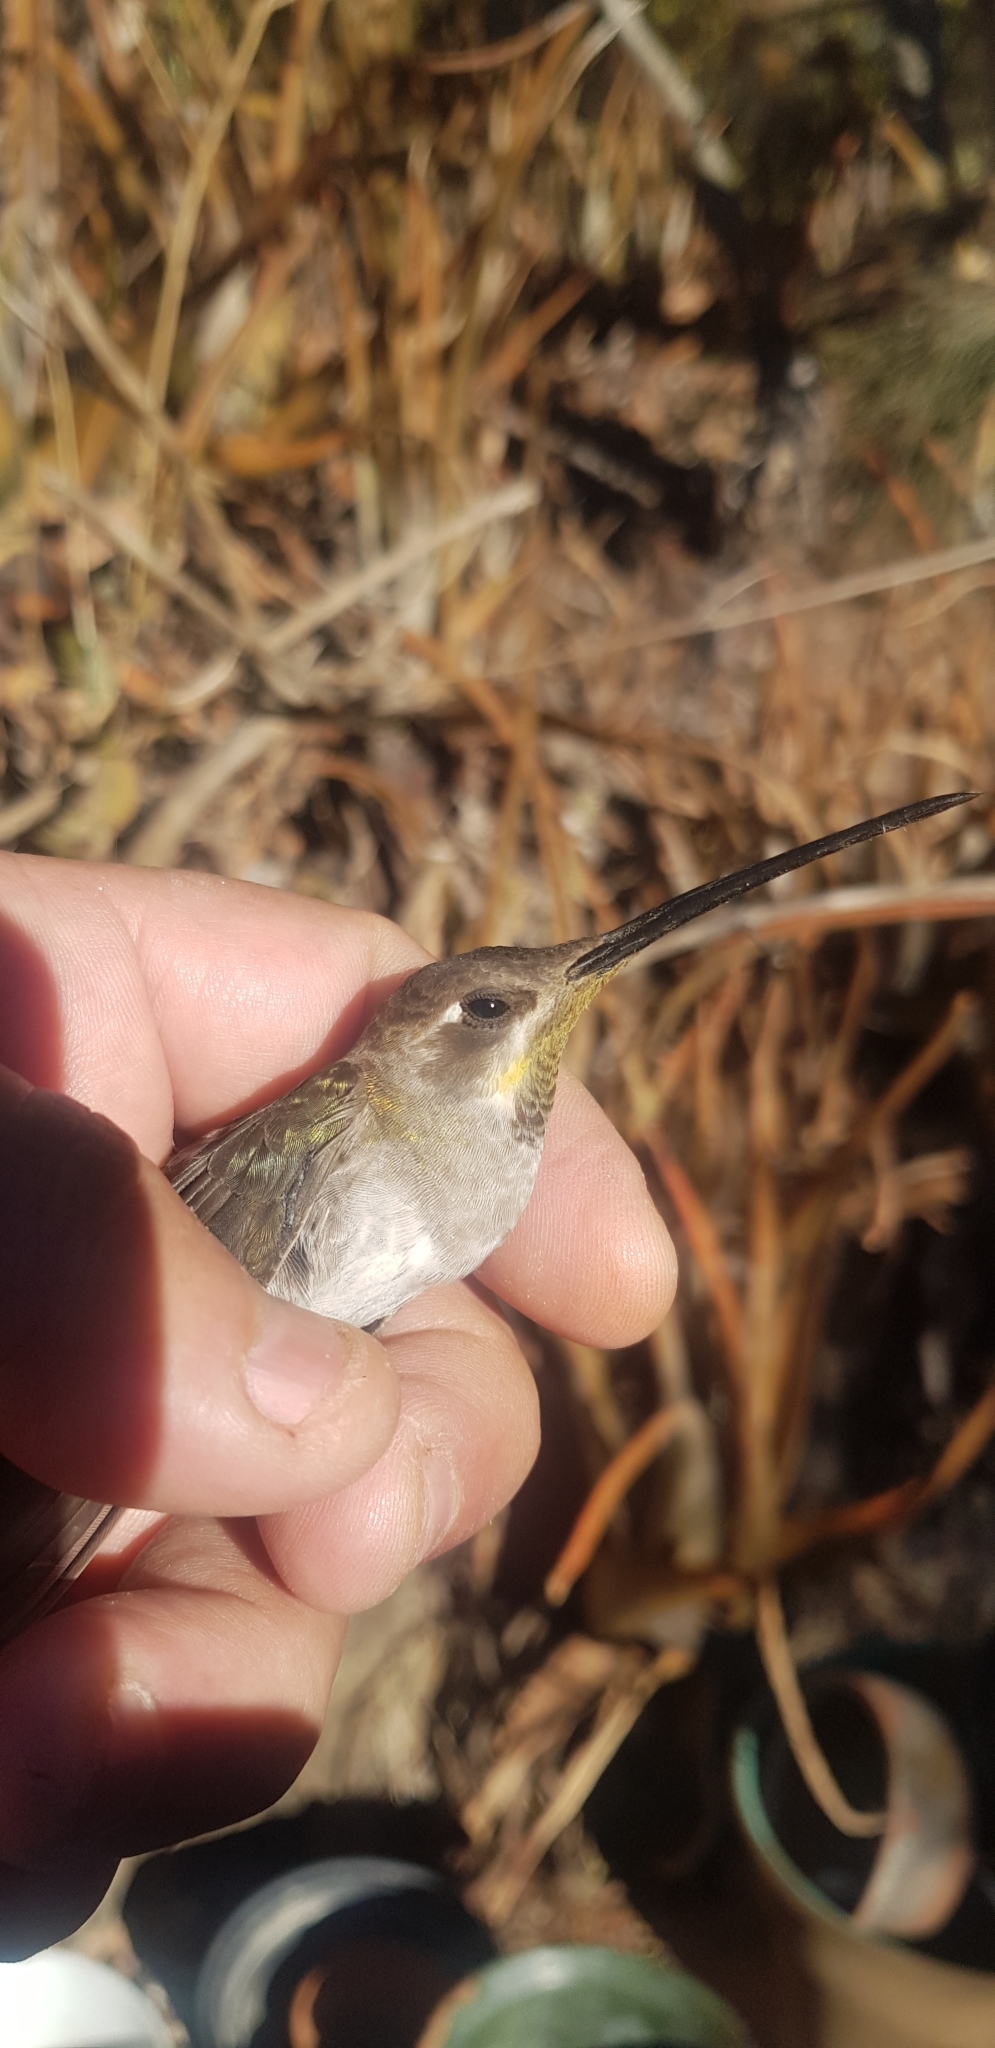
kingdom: Animalia
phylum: Chordata
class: Aves
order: Apodiformes
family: Trochilidae
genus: Lampornis
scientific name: Lampornis clemenciae
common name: Blue-throated mountaingem
